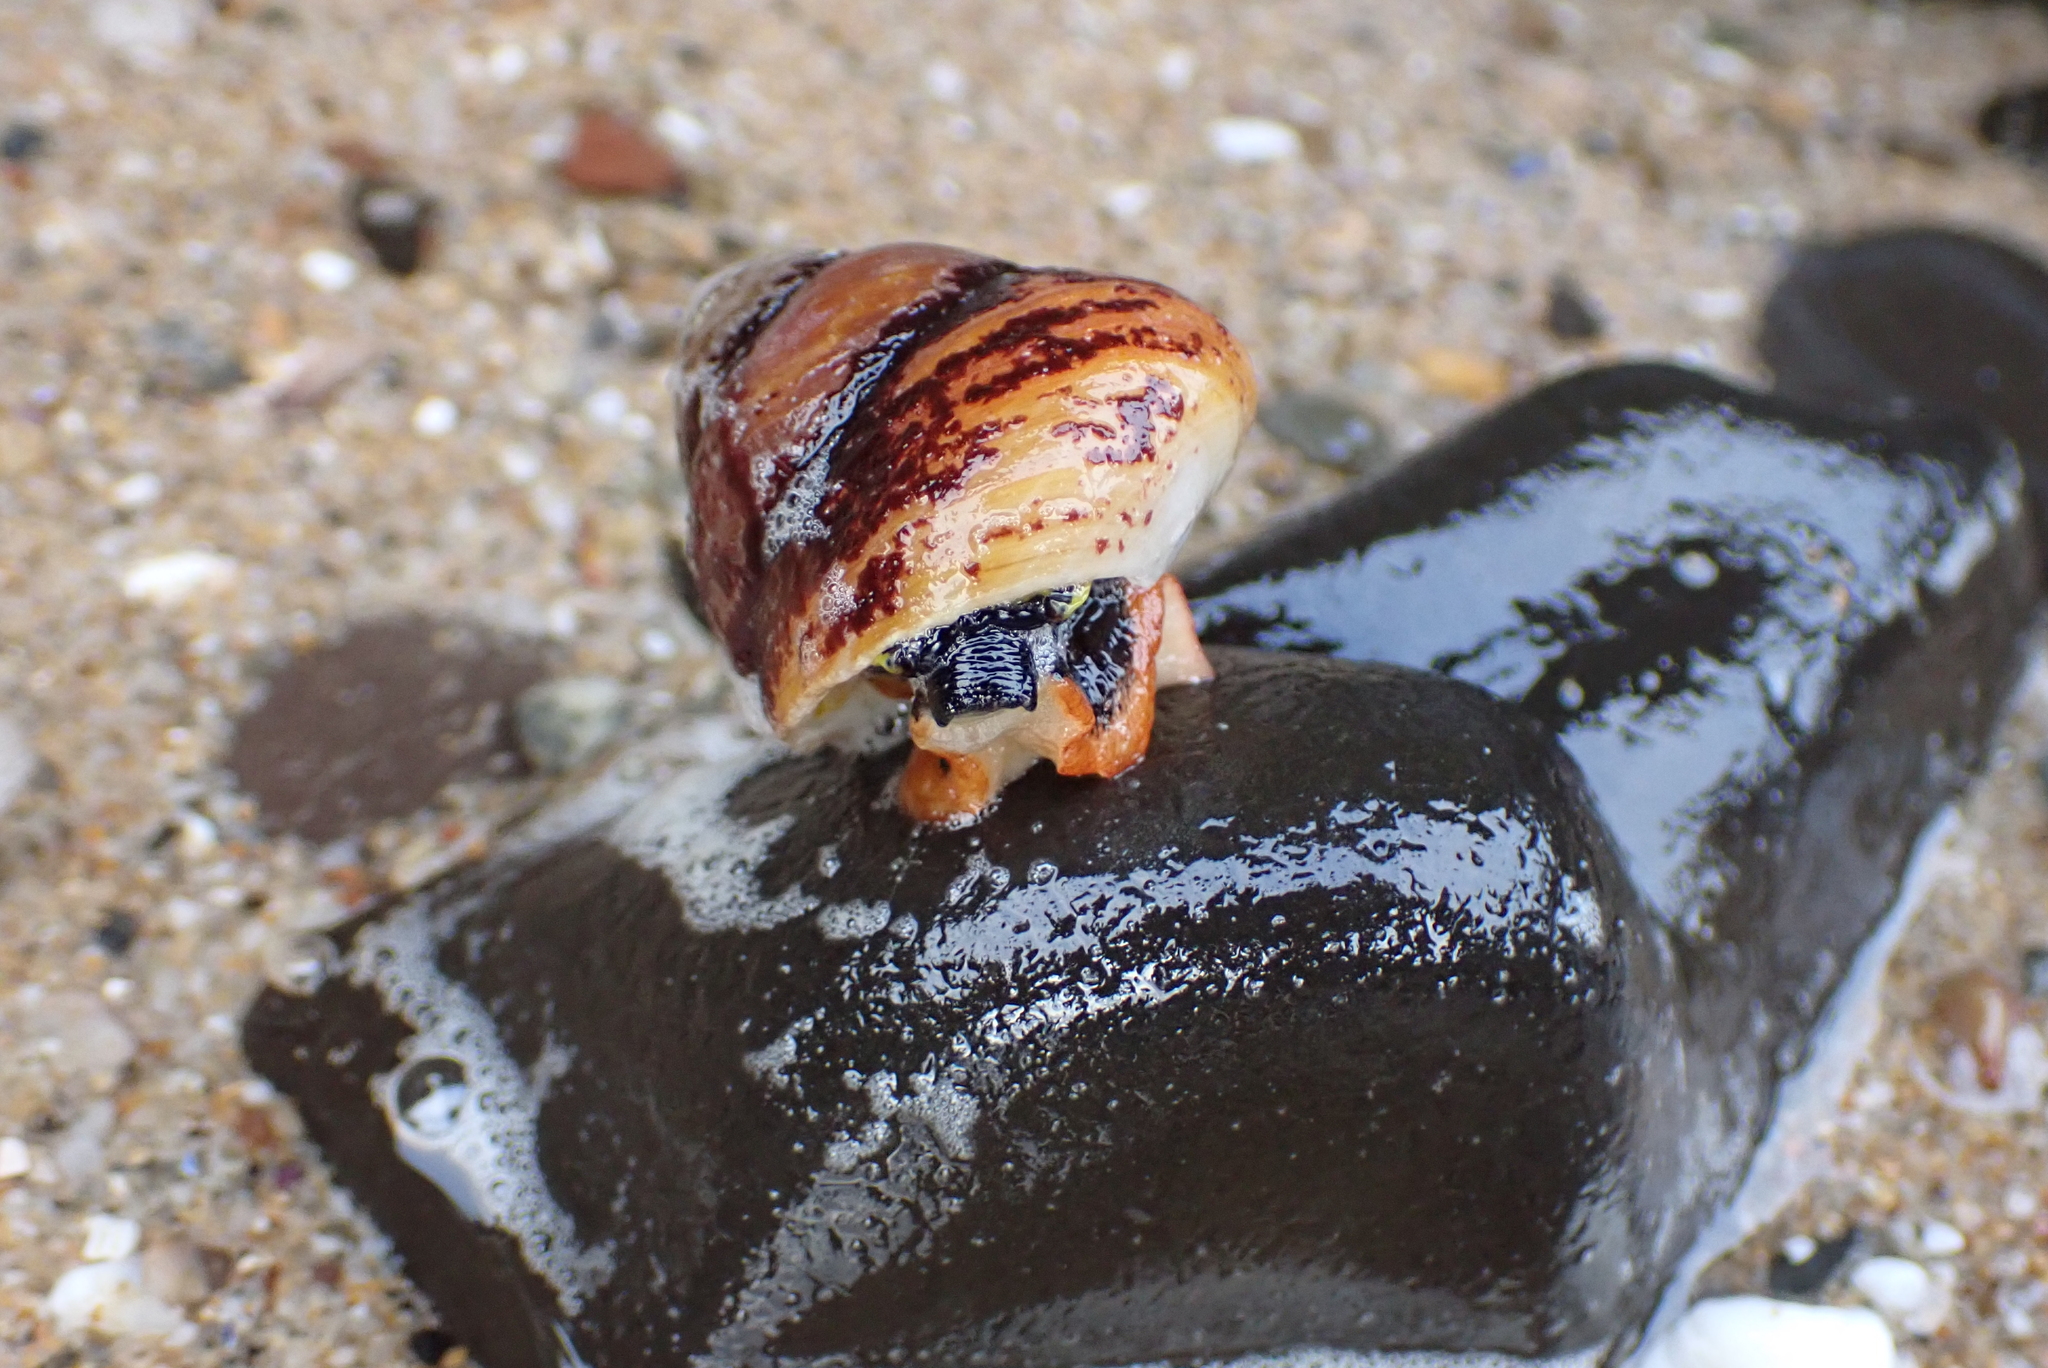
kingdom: Animalia
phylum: Mollusca
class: Gastropoda
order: Trochida
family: Tegulidae
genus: Tegula
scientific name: Tegula brunnea
